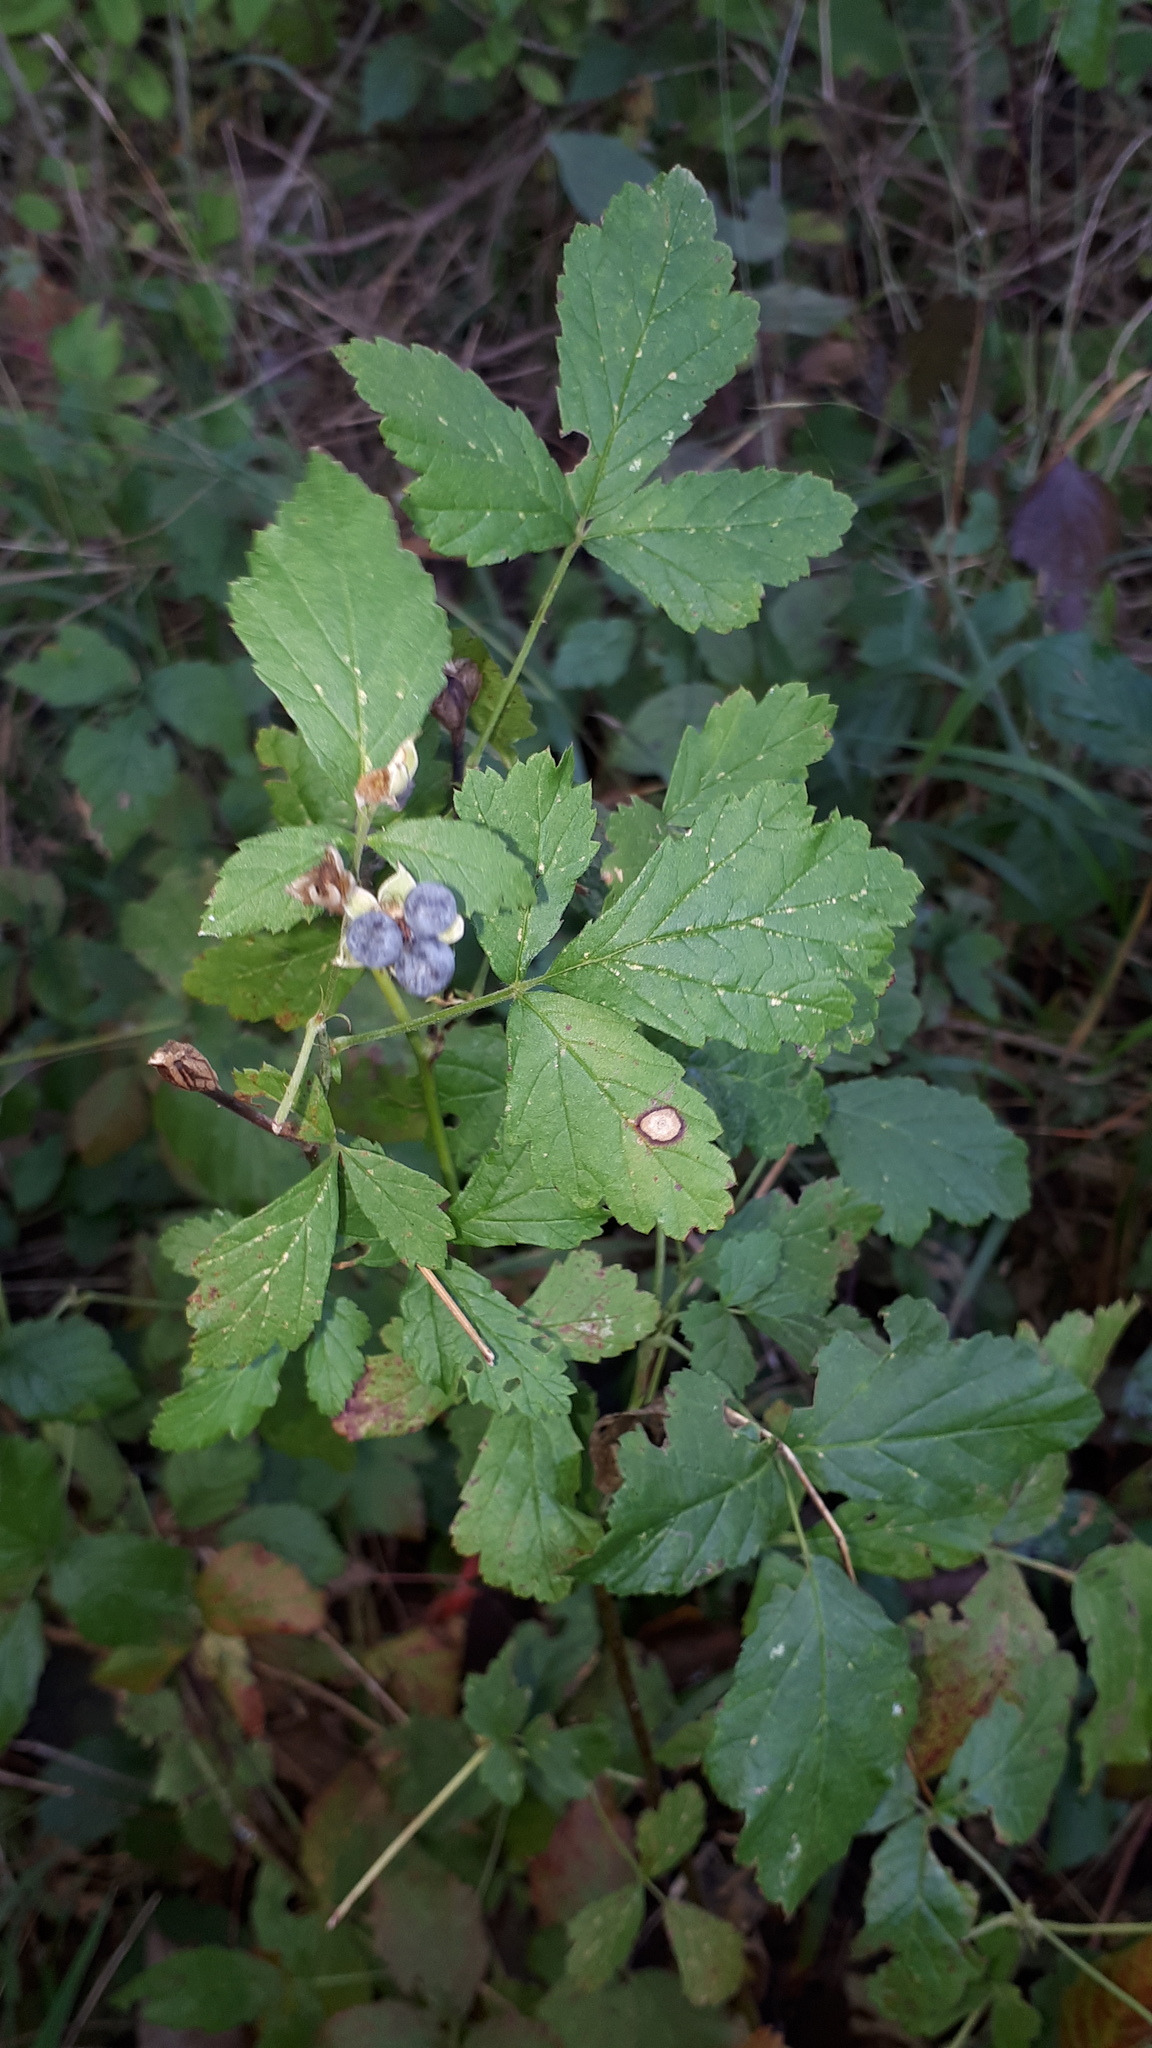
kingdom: Plantae
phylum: Tracheophyta
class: Magnoliopsida
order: Rosales
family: Rosaceae
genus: Rubus
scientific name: Rubus caesius
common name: Dewberry
